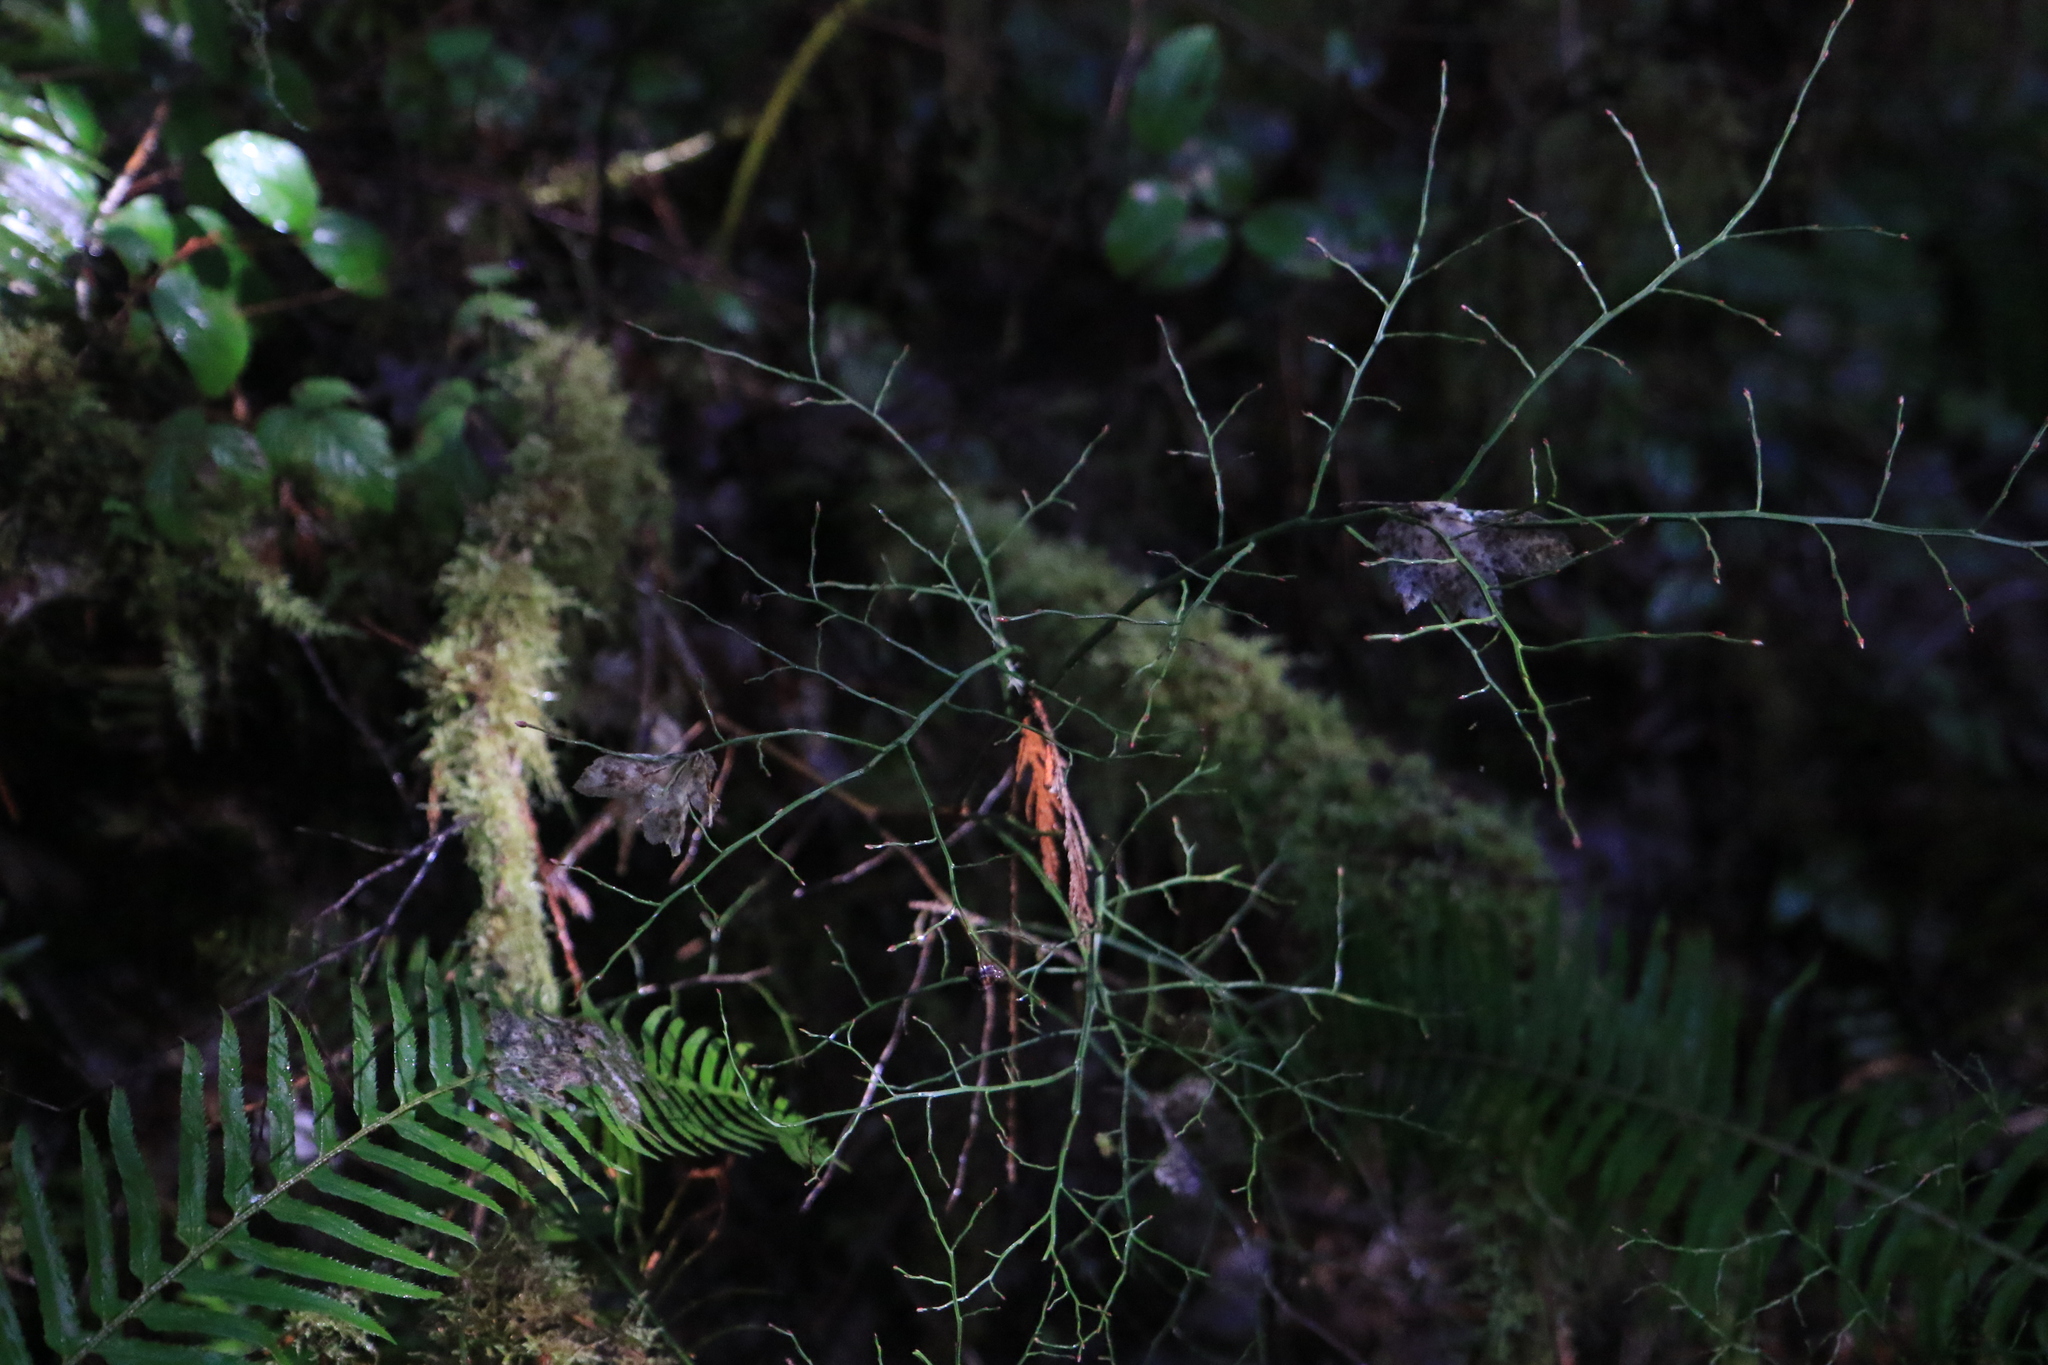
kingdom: Plantae
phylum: Tracheophyta
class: Magnoliopsida
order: Ericales
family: Ericaceae
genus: Vaccinium
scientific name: Vaccinium parvifolium
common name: Red-huckleberry
